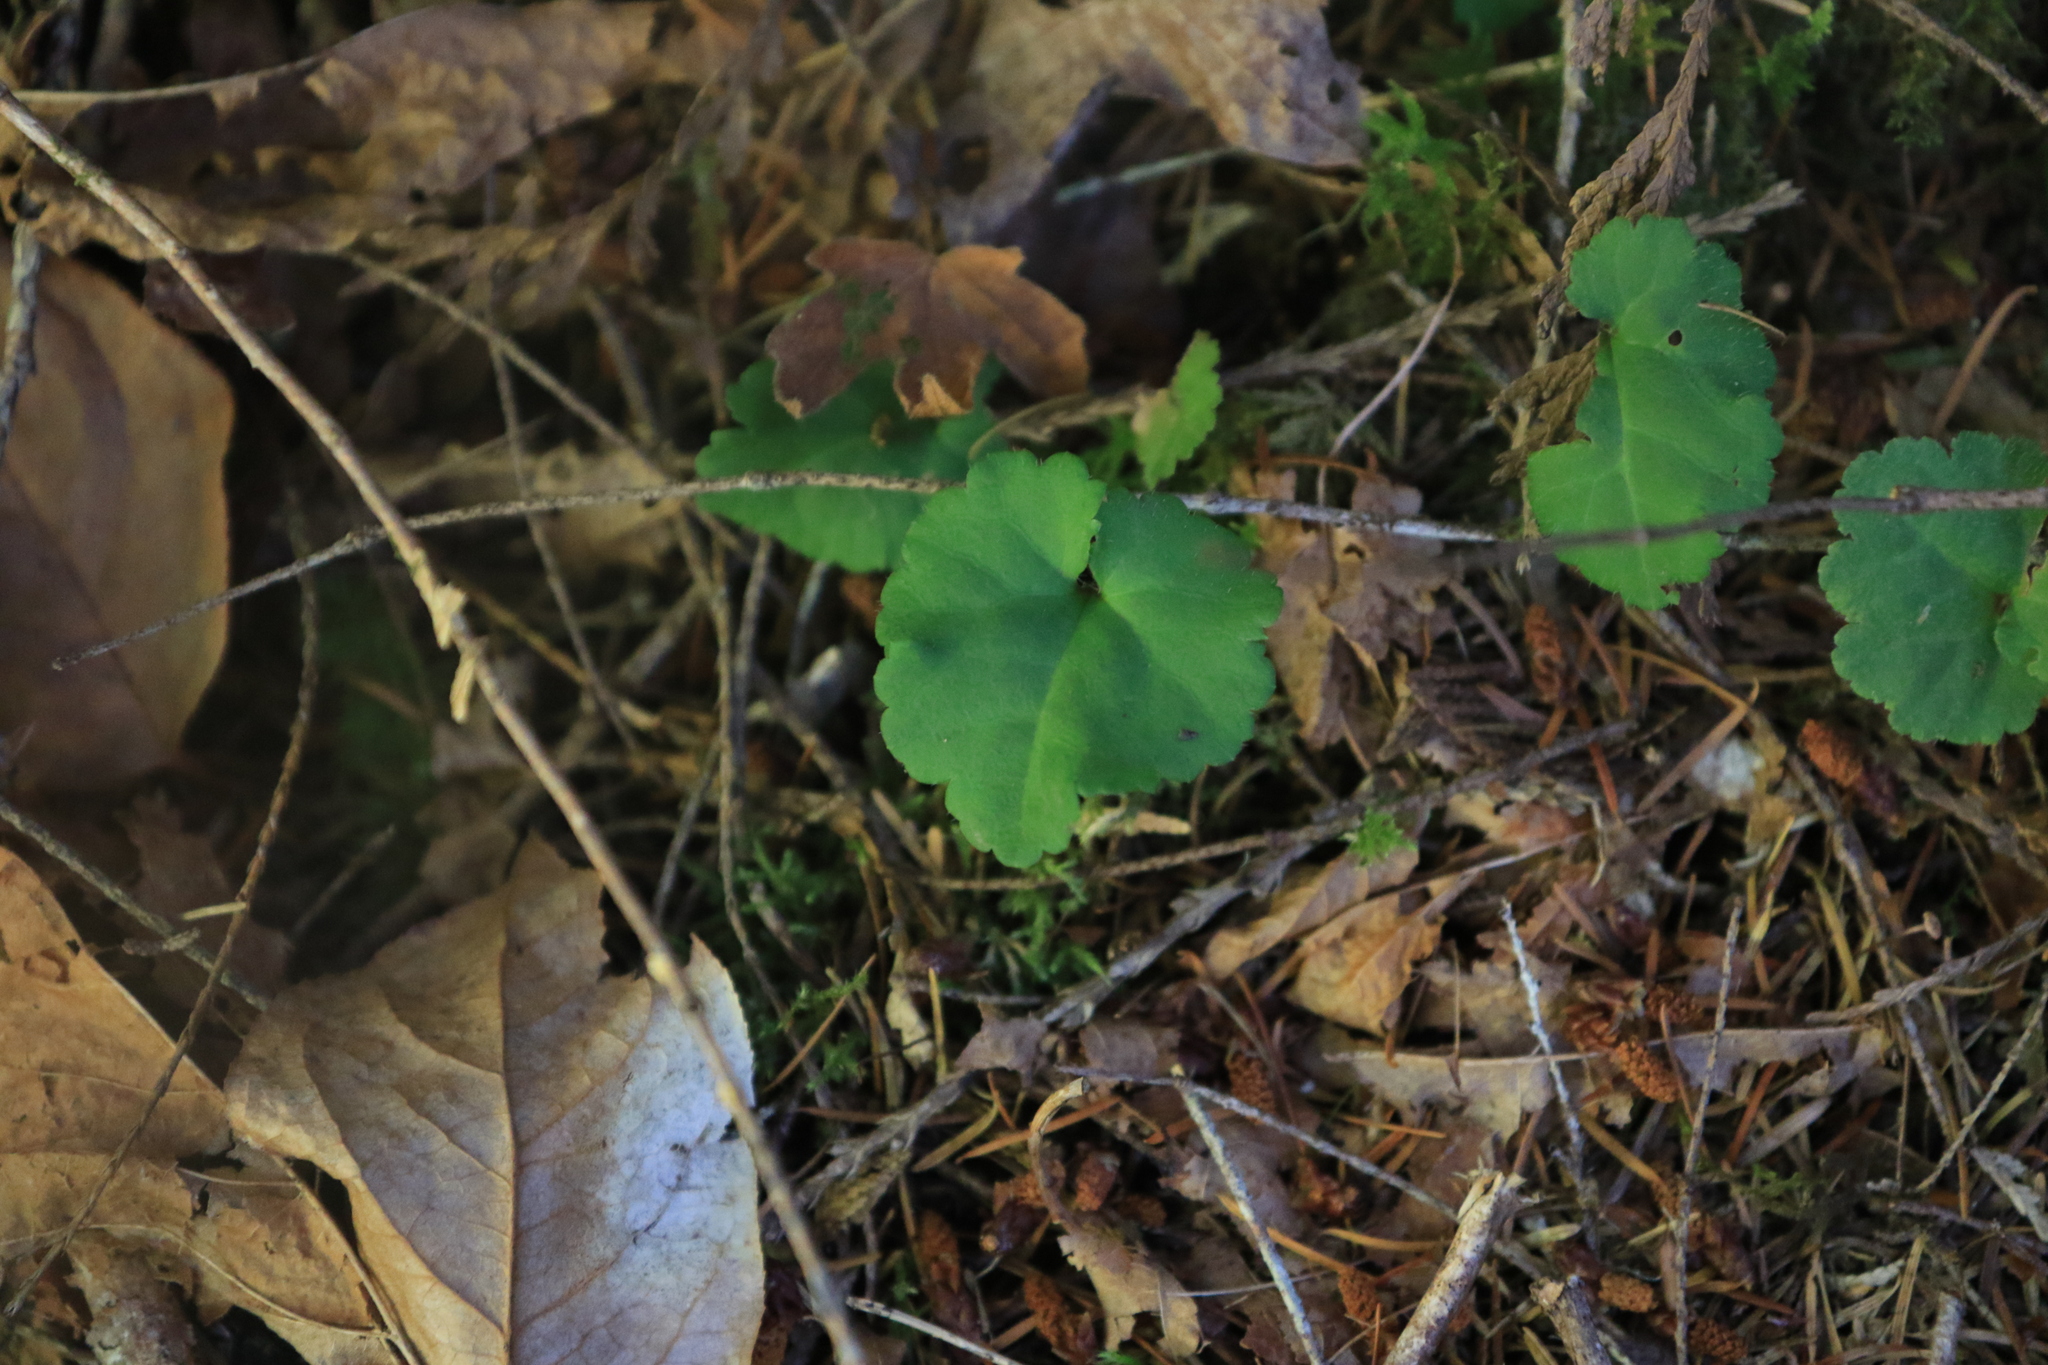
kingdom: Plantae
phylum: Tracheophyta
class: Magnoliopsida
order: Lamiales
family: Plantaginaceae
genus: Synthyris
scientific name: Synthyris reniformis
